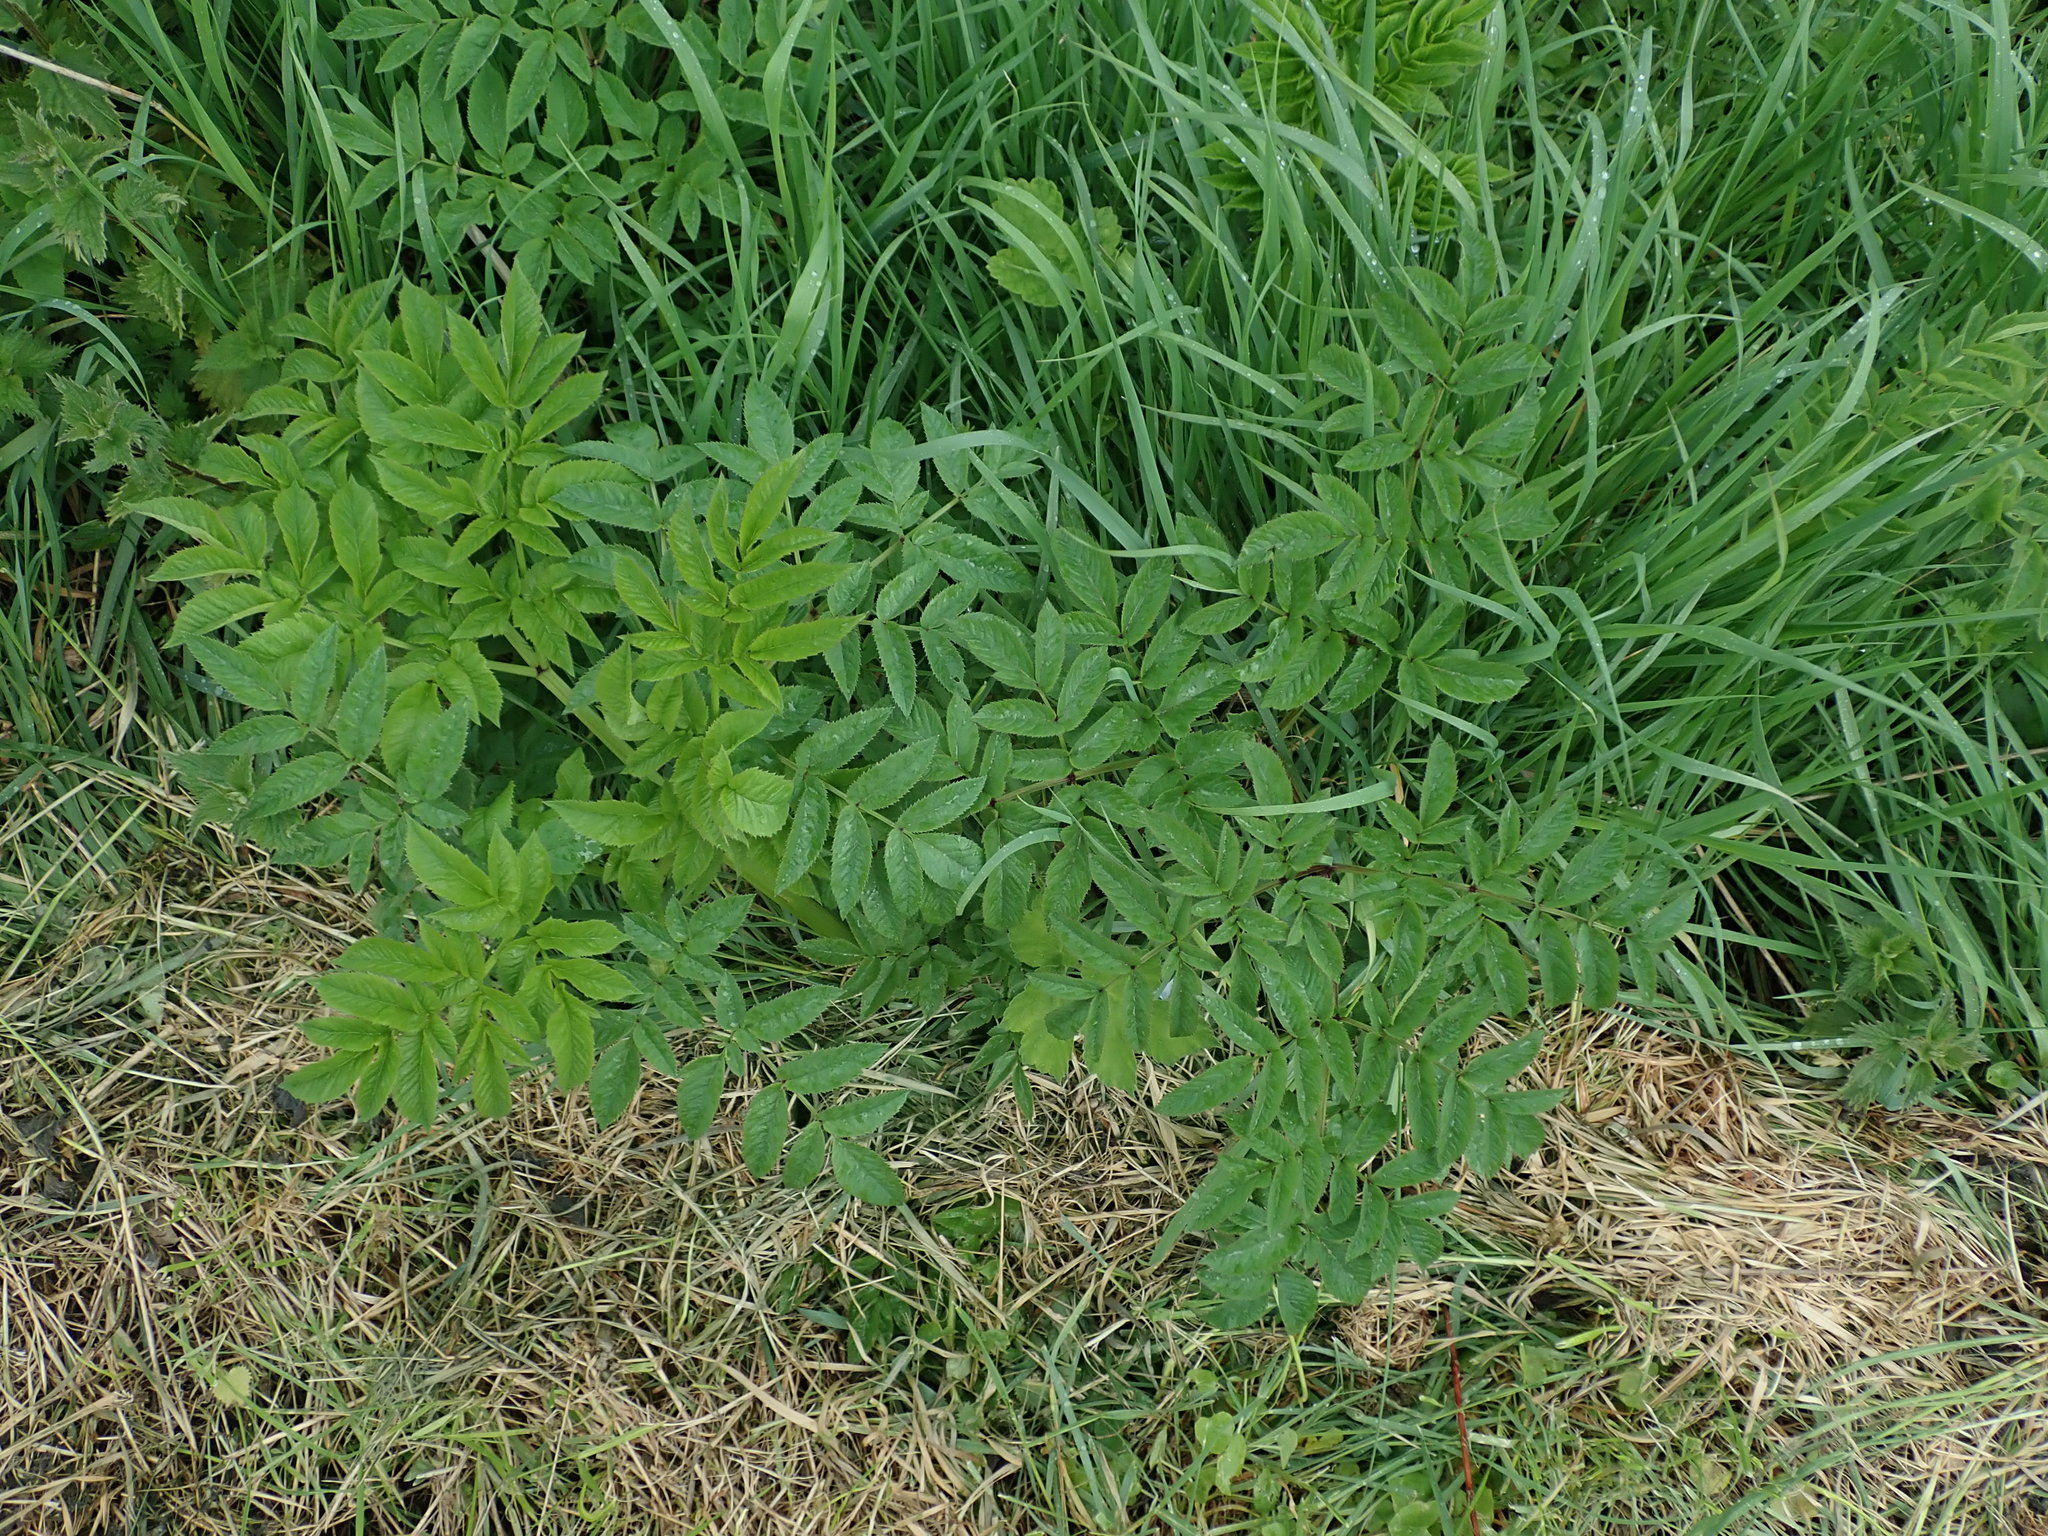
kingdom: Plantae
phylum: Tracheophyta
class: Magnoliopsida
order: Apiales
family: Apiaceae
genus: Angelica
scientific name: Angelica sylvestris
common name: Wild angelica
